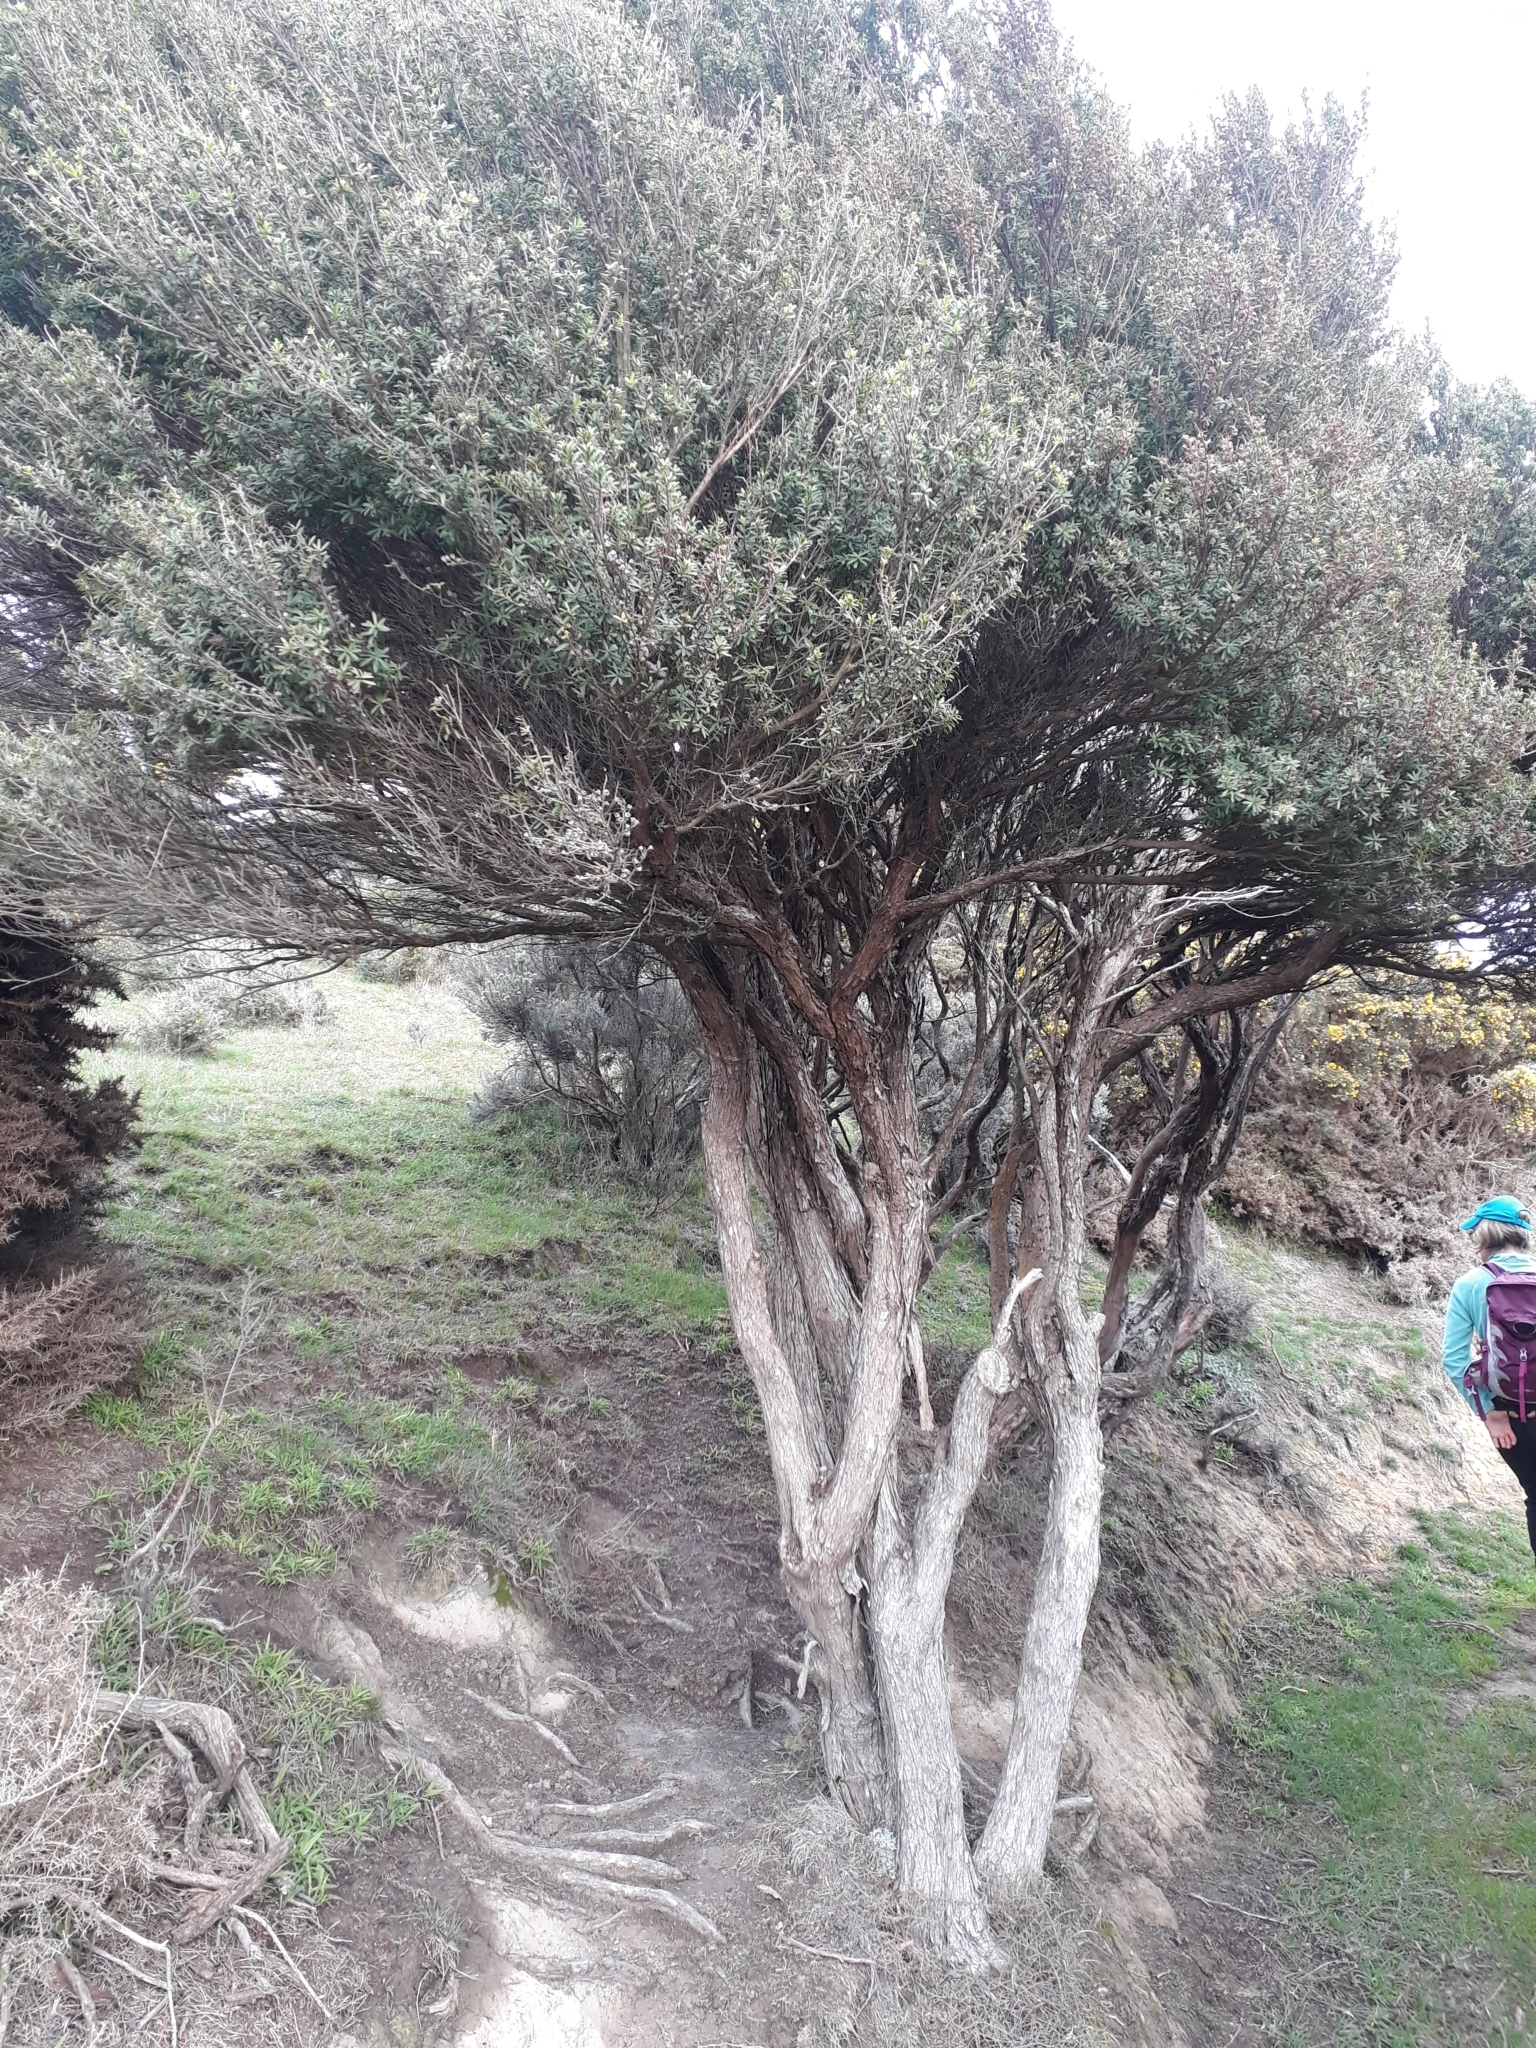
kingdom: Plantae
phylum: Tracheophyta
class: Magnoliopsida
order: Myrtales
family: Myrtaceae
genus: Kunzea
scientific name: Kunzea amathicola
